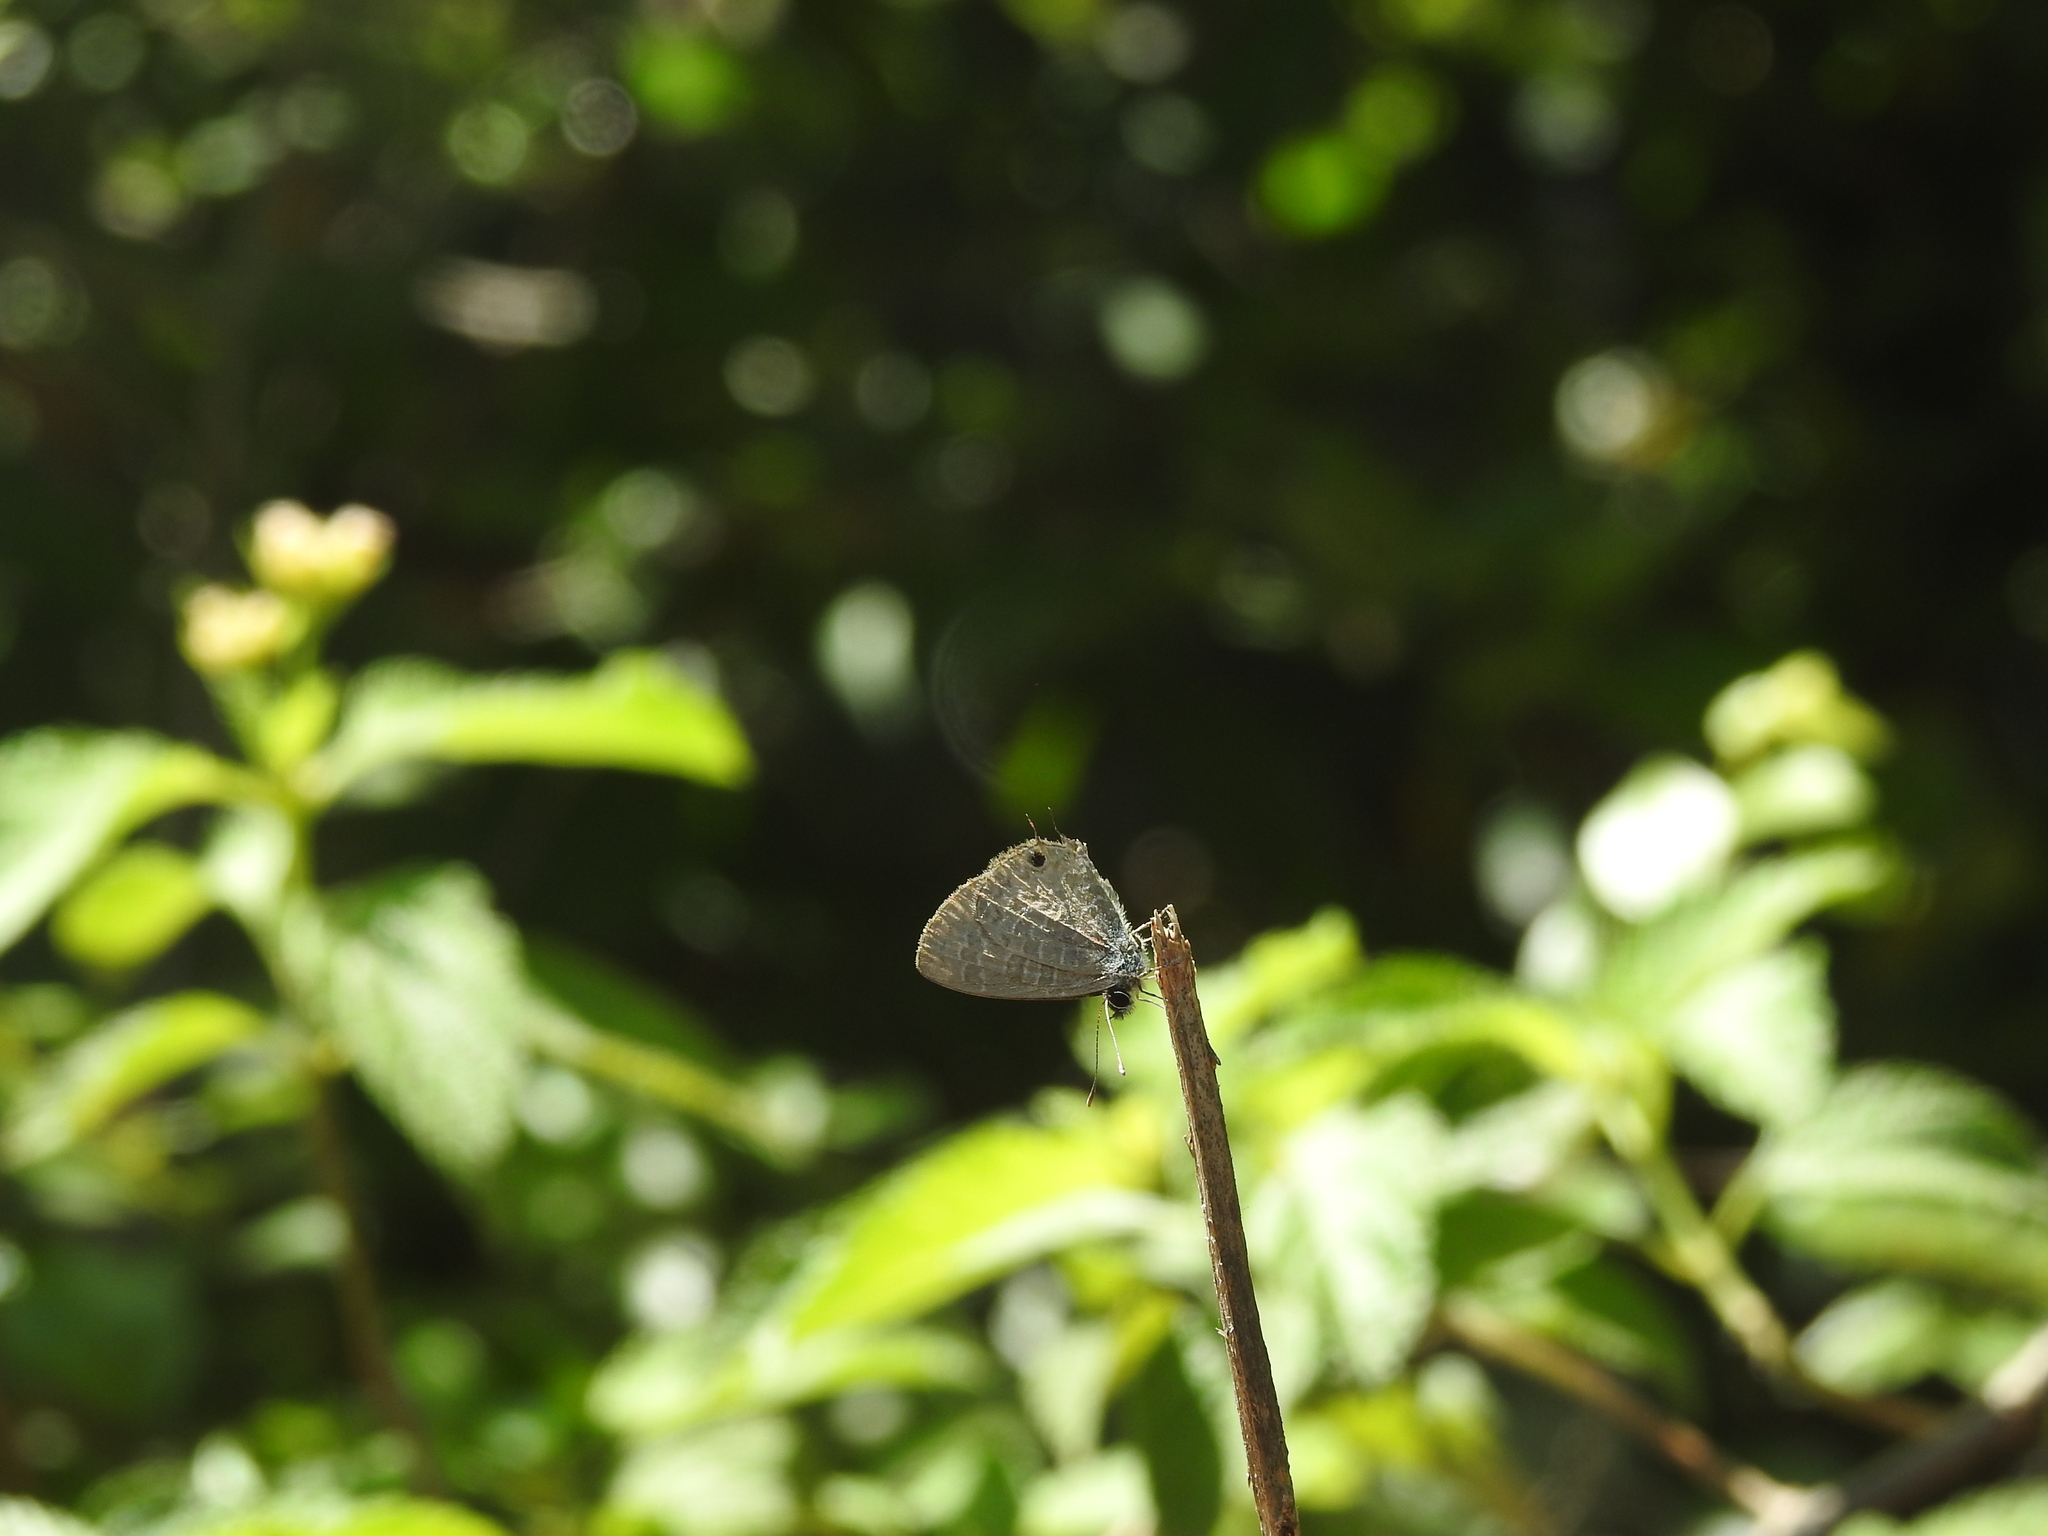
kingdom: Animalia
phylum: Arthropoda
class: Insecta
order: Lepidoptera
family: Lycaenidae
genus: Prosotas
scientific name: Prosotas nora
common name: Common line blue
